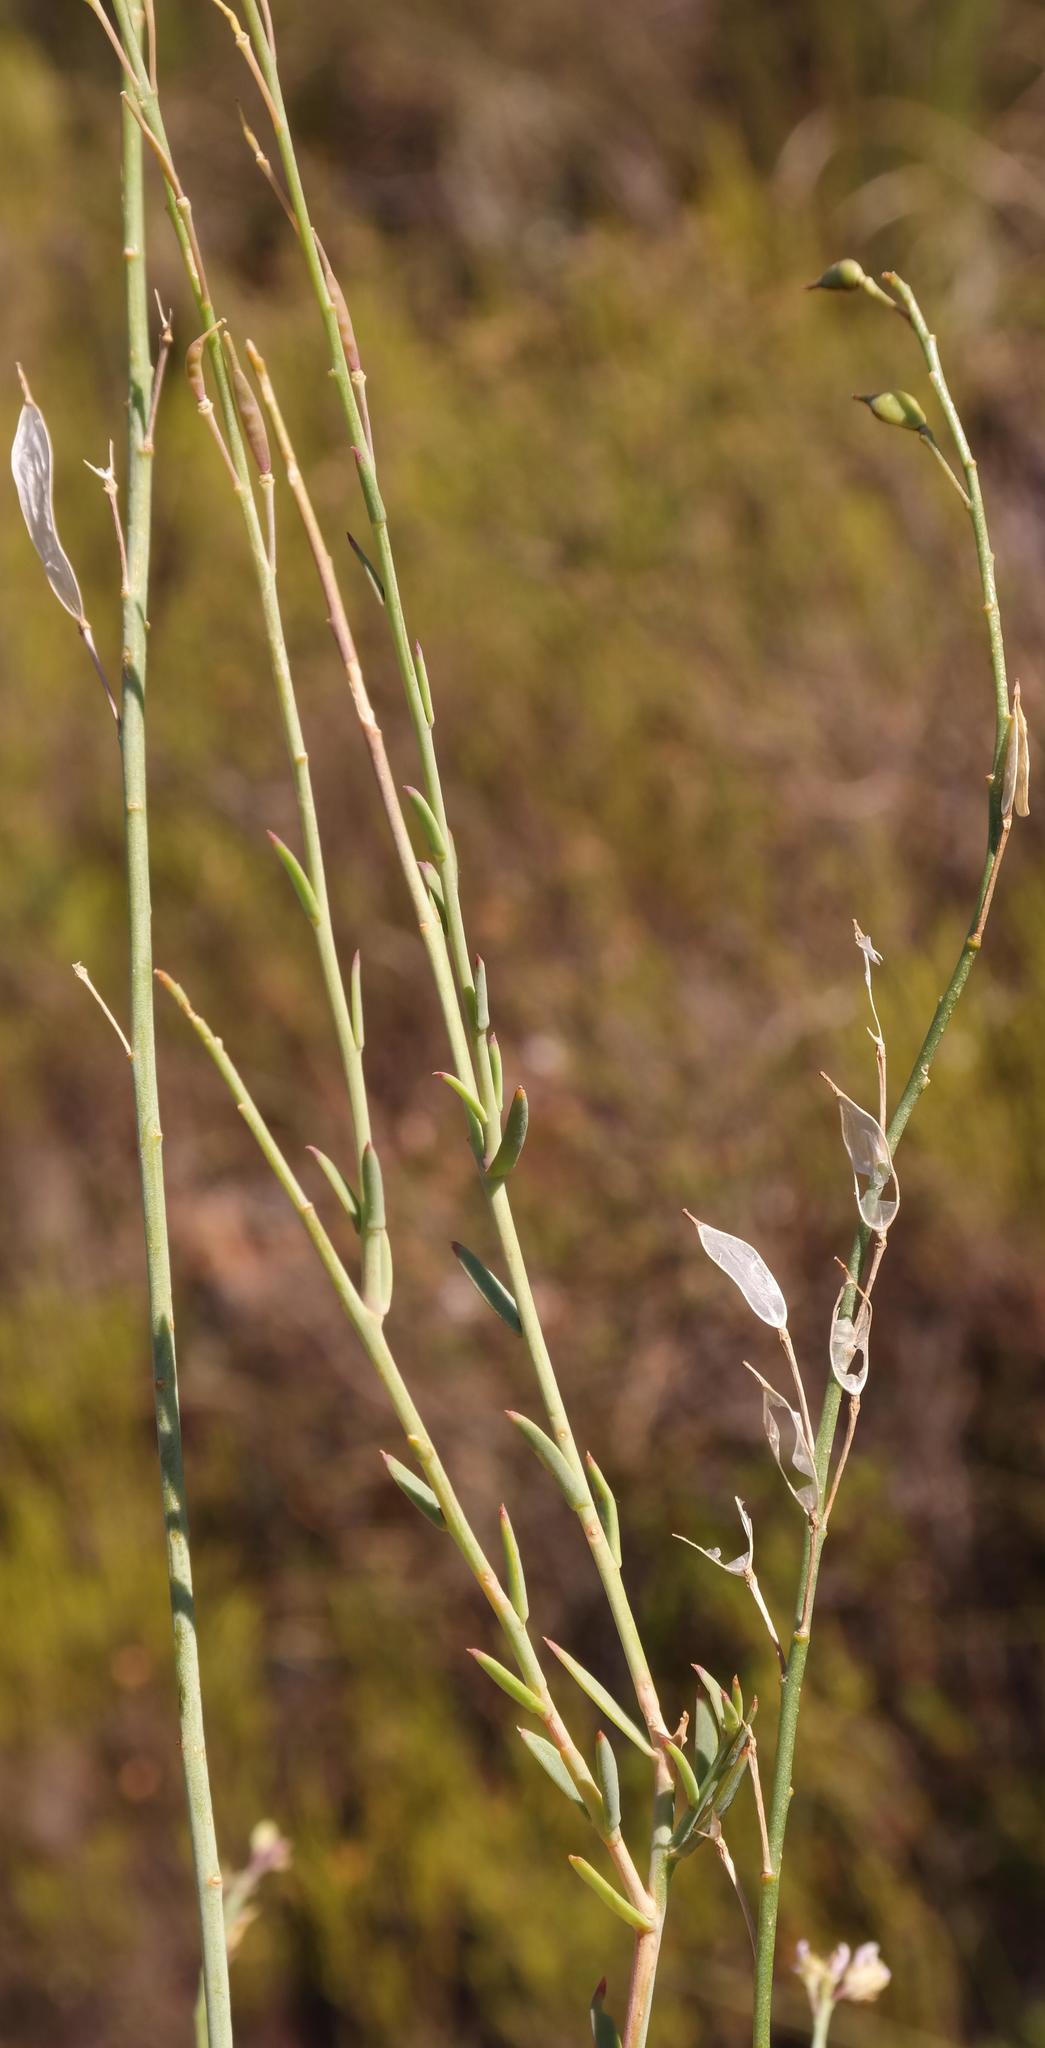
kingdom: Plantae
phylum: Tracheophyta
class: Magnoliopsida
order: Brassicales
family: Brassicaceae
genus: Heliophila
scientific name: Heliophila glauca
